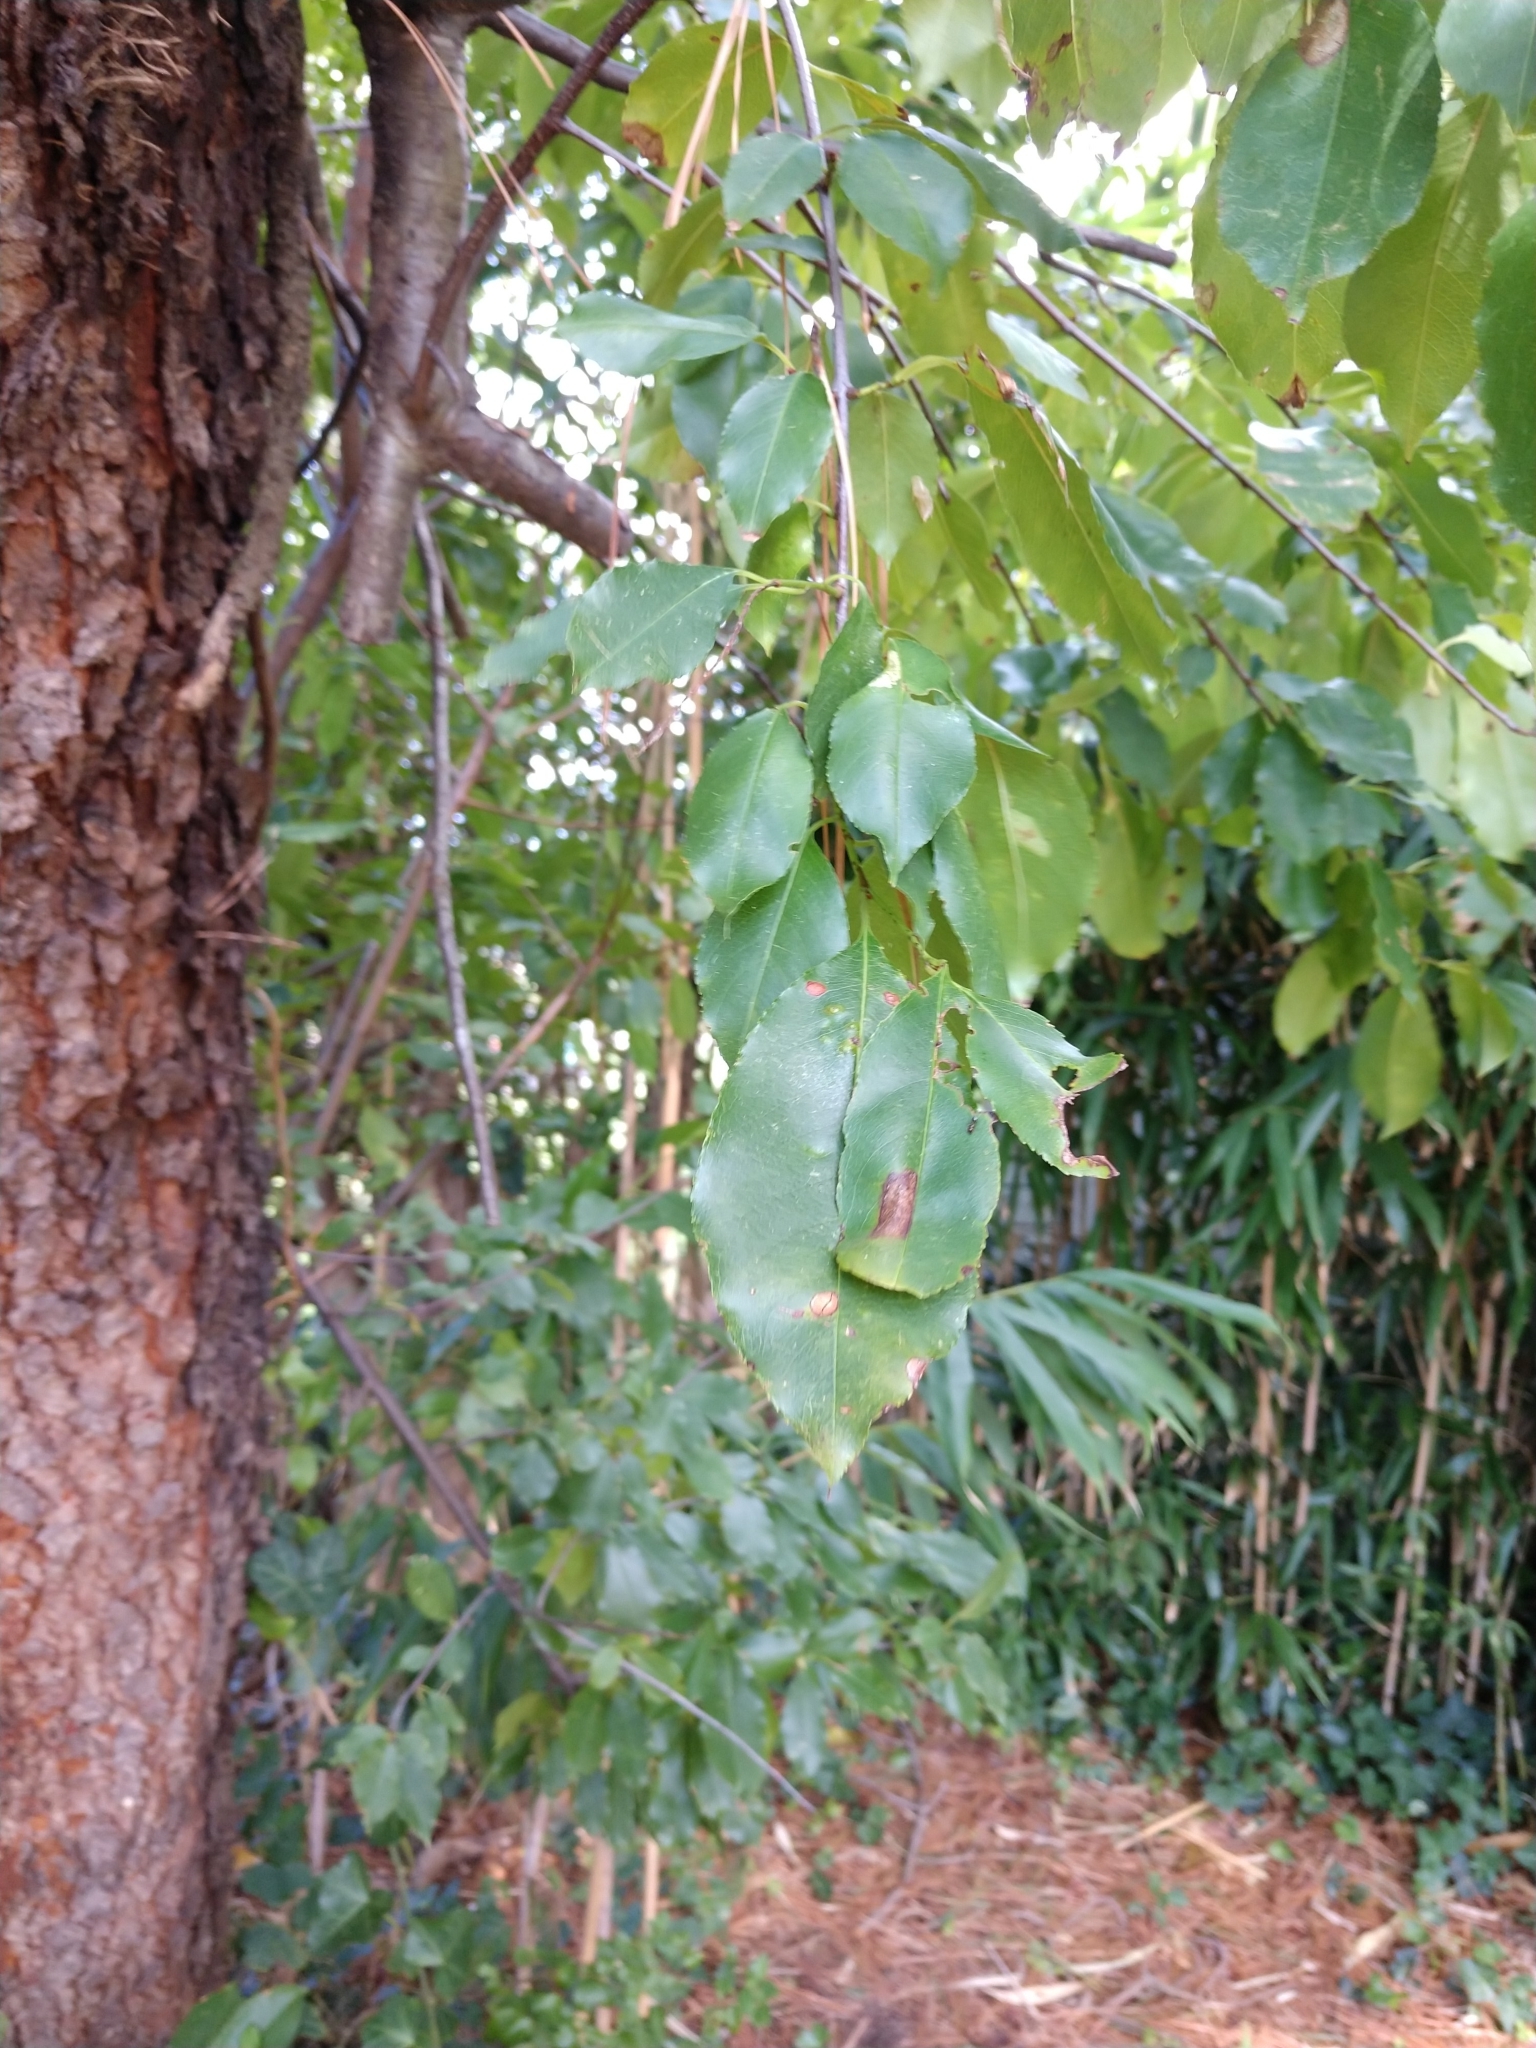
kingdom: Plantae
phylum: Tracheophyta
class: Magnoliopsida
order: Rosales
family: Rosaceae
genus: Prunus
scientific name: Prunus serotina
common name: Black cherry
